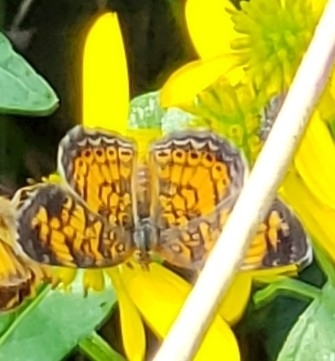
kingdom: Animalia
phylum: Arthropoda
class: Insecta
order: Lepidoptera
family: Nymphalidae
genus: Phyciodes
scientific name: Phyciodes tharos
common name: Pearl crescent
